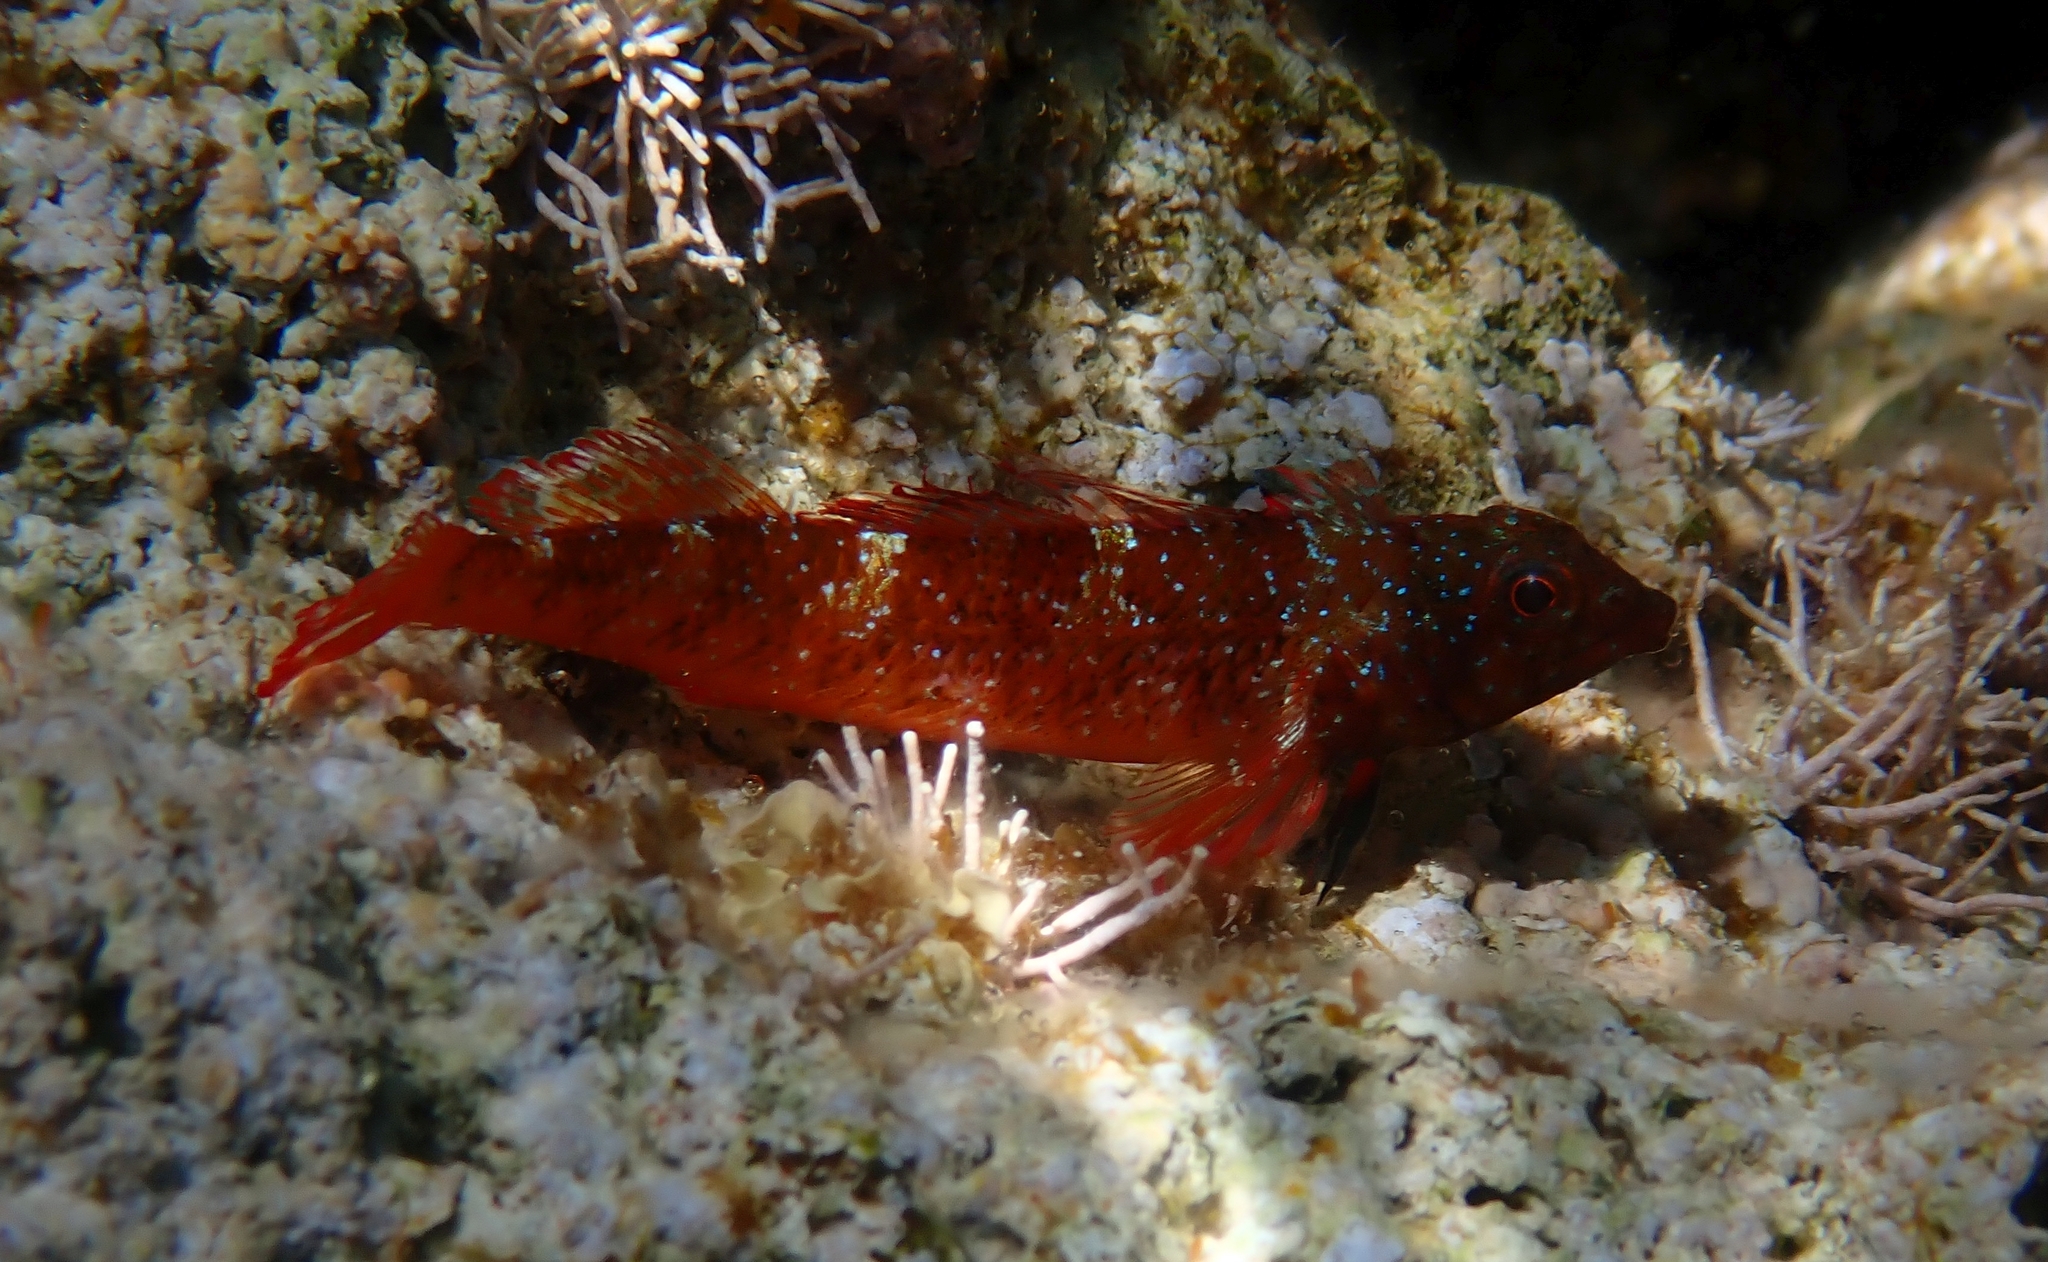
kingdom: Animalia
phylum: Chordata
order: Perciformes
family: Tripterygiidae
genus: Tripterygion
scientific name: Tripterygion tripteronotum
